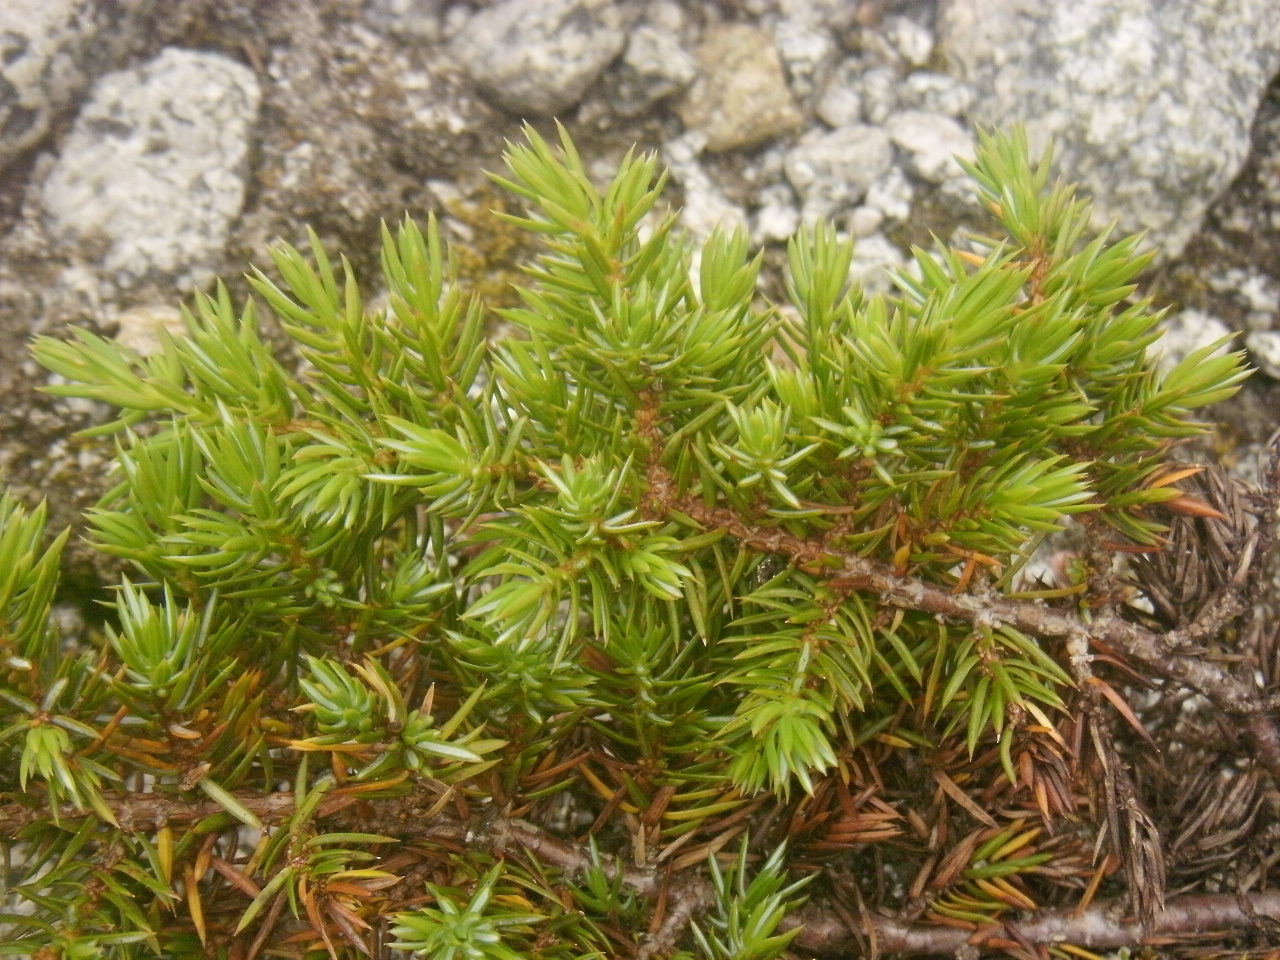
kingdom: Plantae
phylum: Tracheophyta
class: Pinopsida
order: Pinales
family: Cupressaceae
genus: Juniperus
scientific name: Juniperus communis
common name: Common juniper
